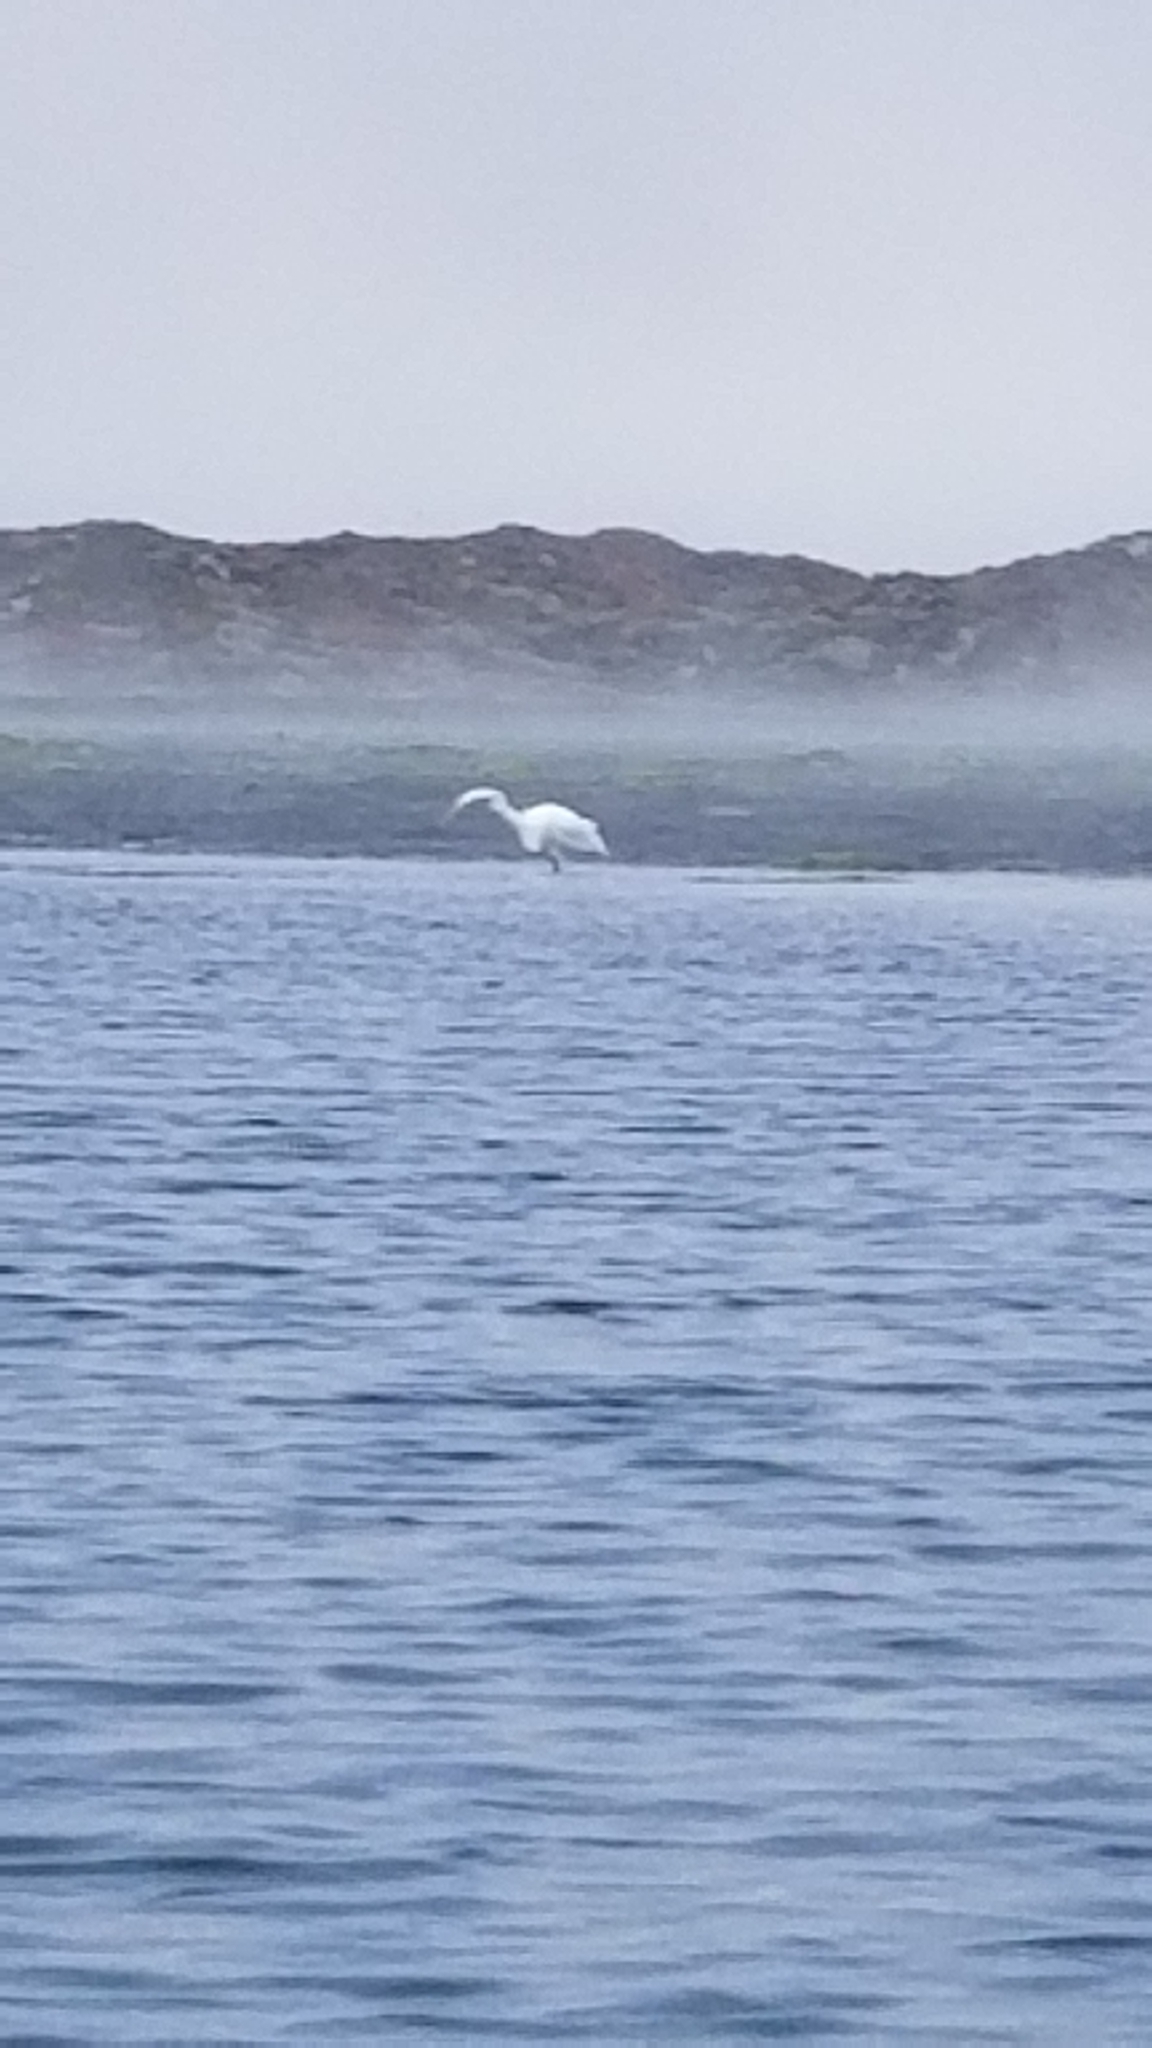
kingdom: Animalia
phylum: Chordata
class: Aves
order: Pelecaniformes
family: Ardeidae
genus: Ardea
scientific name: Ardea alba
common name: Great egret
